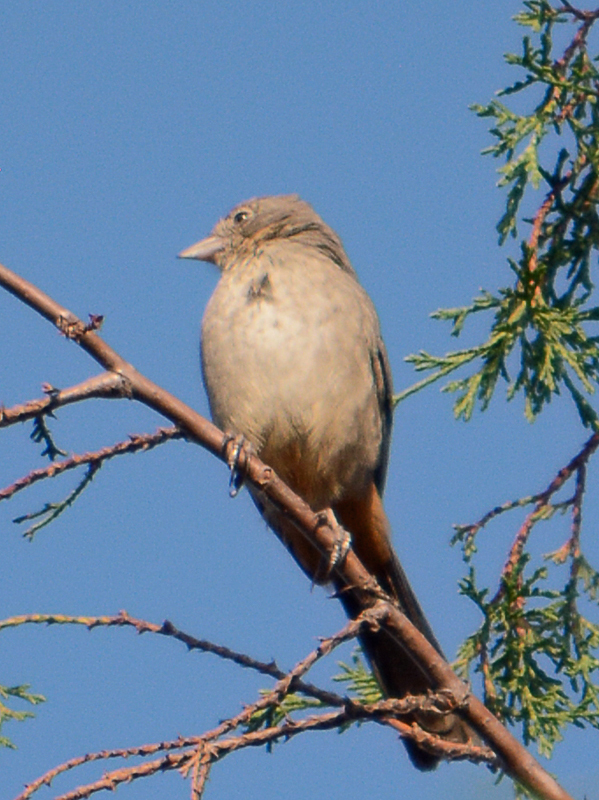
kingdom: Animalia
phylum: Chordata
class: Aves
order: Passeriformes
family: Passerellidae
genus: Melozone
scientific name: Melozone fusca
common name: Canyon towhee
